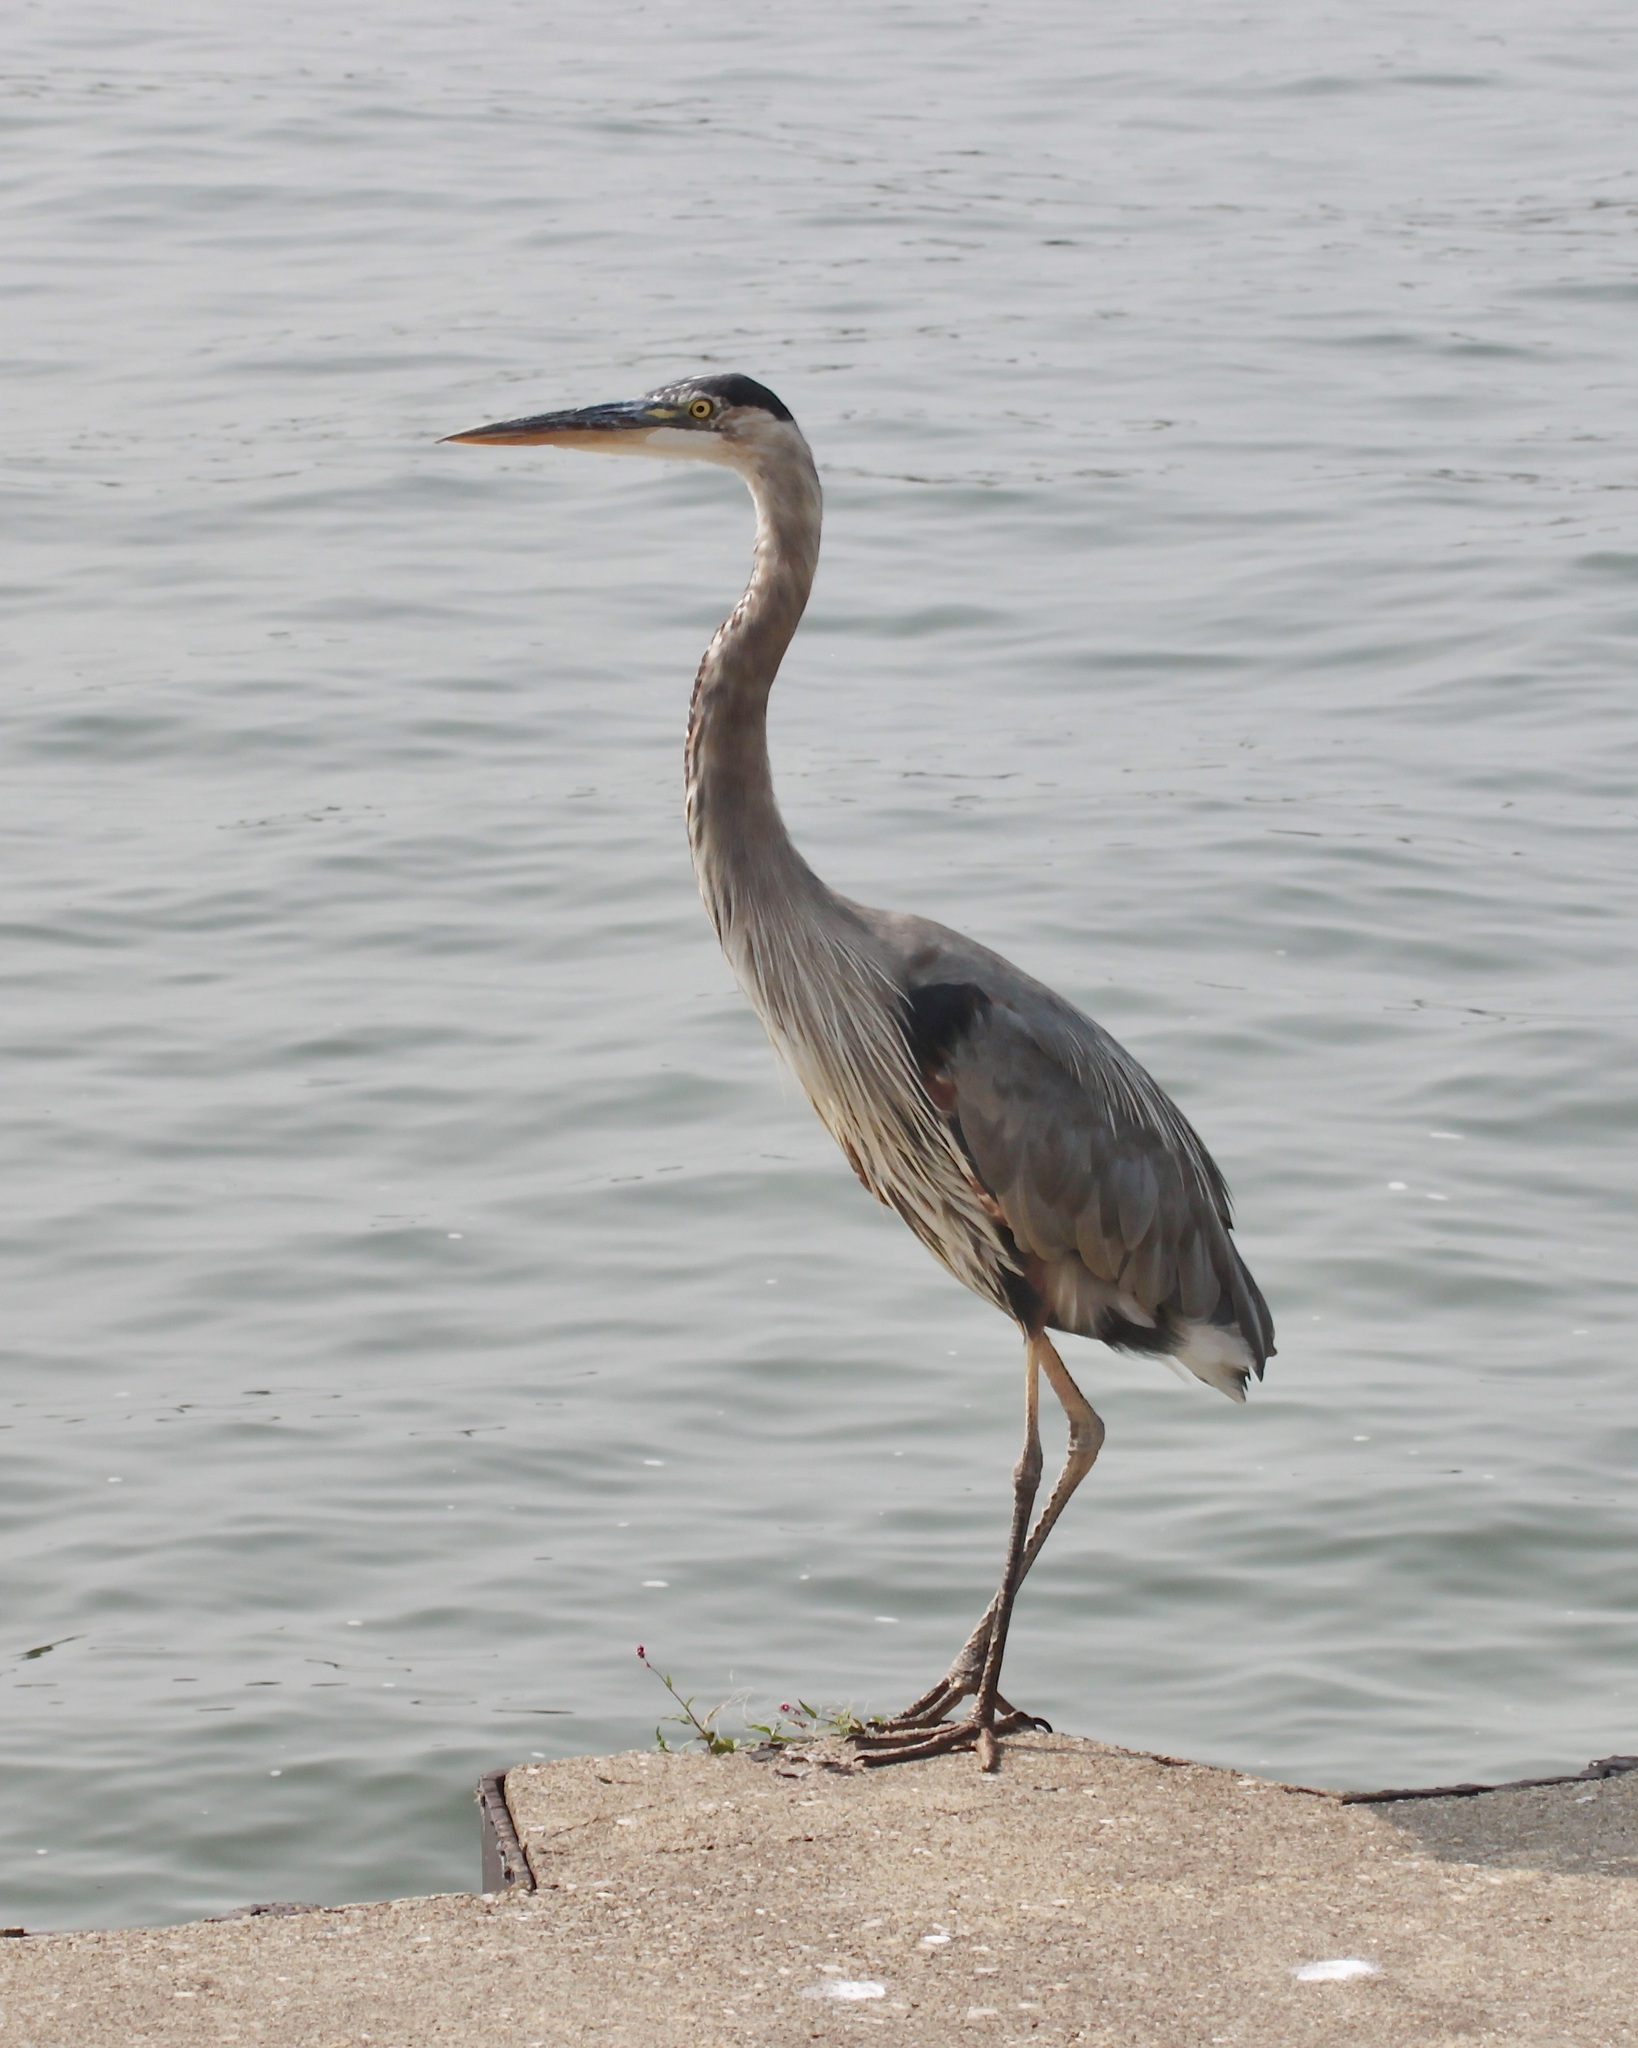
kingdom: Animalia
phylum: Chordata
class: Aves
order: Pelecaniformes
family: Ardeidae
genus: Ardea
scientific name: Ardea herodias
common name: Great blue heron
